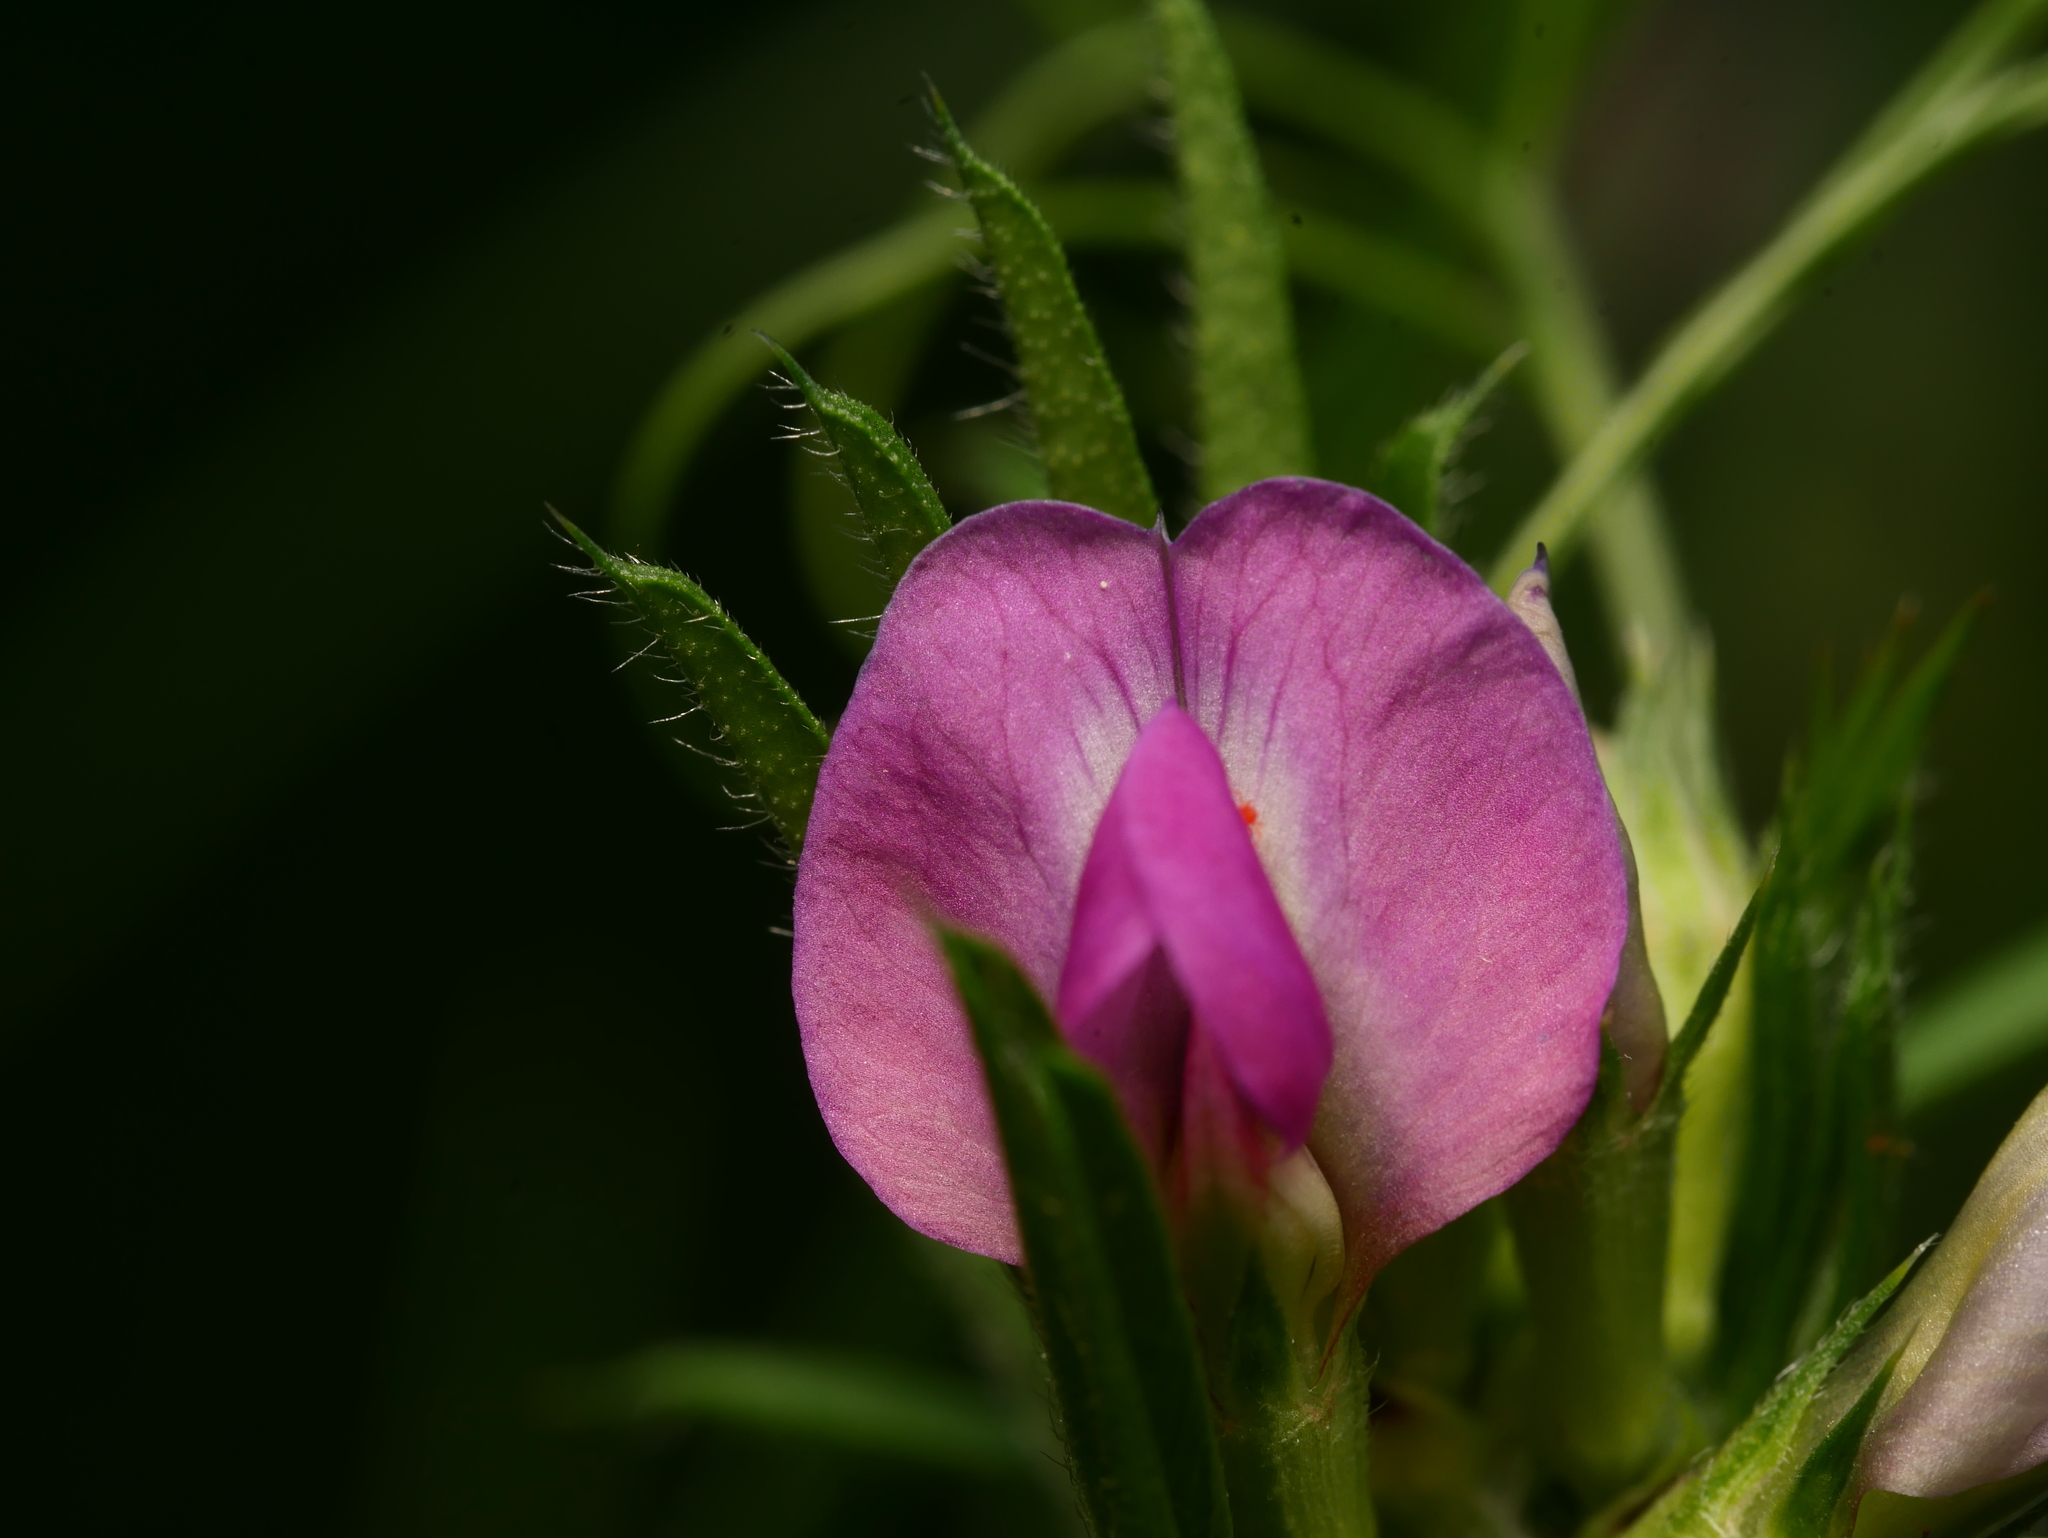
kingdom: Plantae
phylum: Tracheophyta
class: Magnoliopsida
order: Fabales
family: Fabaceae
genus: Vicia
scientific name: Vicia sativa
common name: Garden vetch
